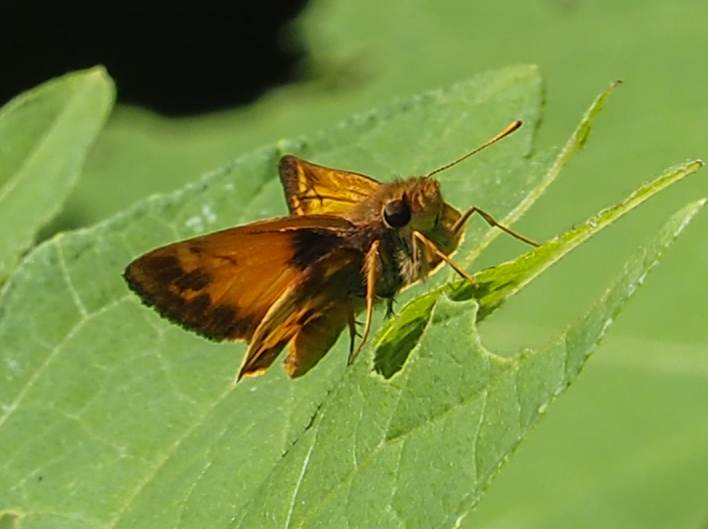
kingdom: Animalia
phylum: Arthropoda
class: Insecta
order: Lepidoptera
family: Hesperiidae
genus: Lon
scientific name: Lon zabulon
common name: Zabulon skipper
